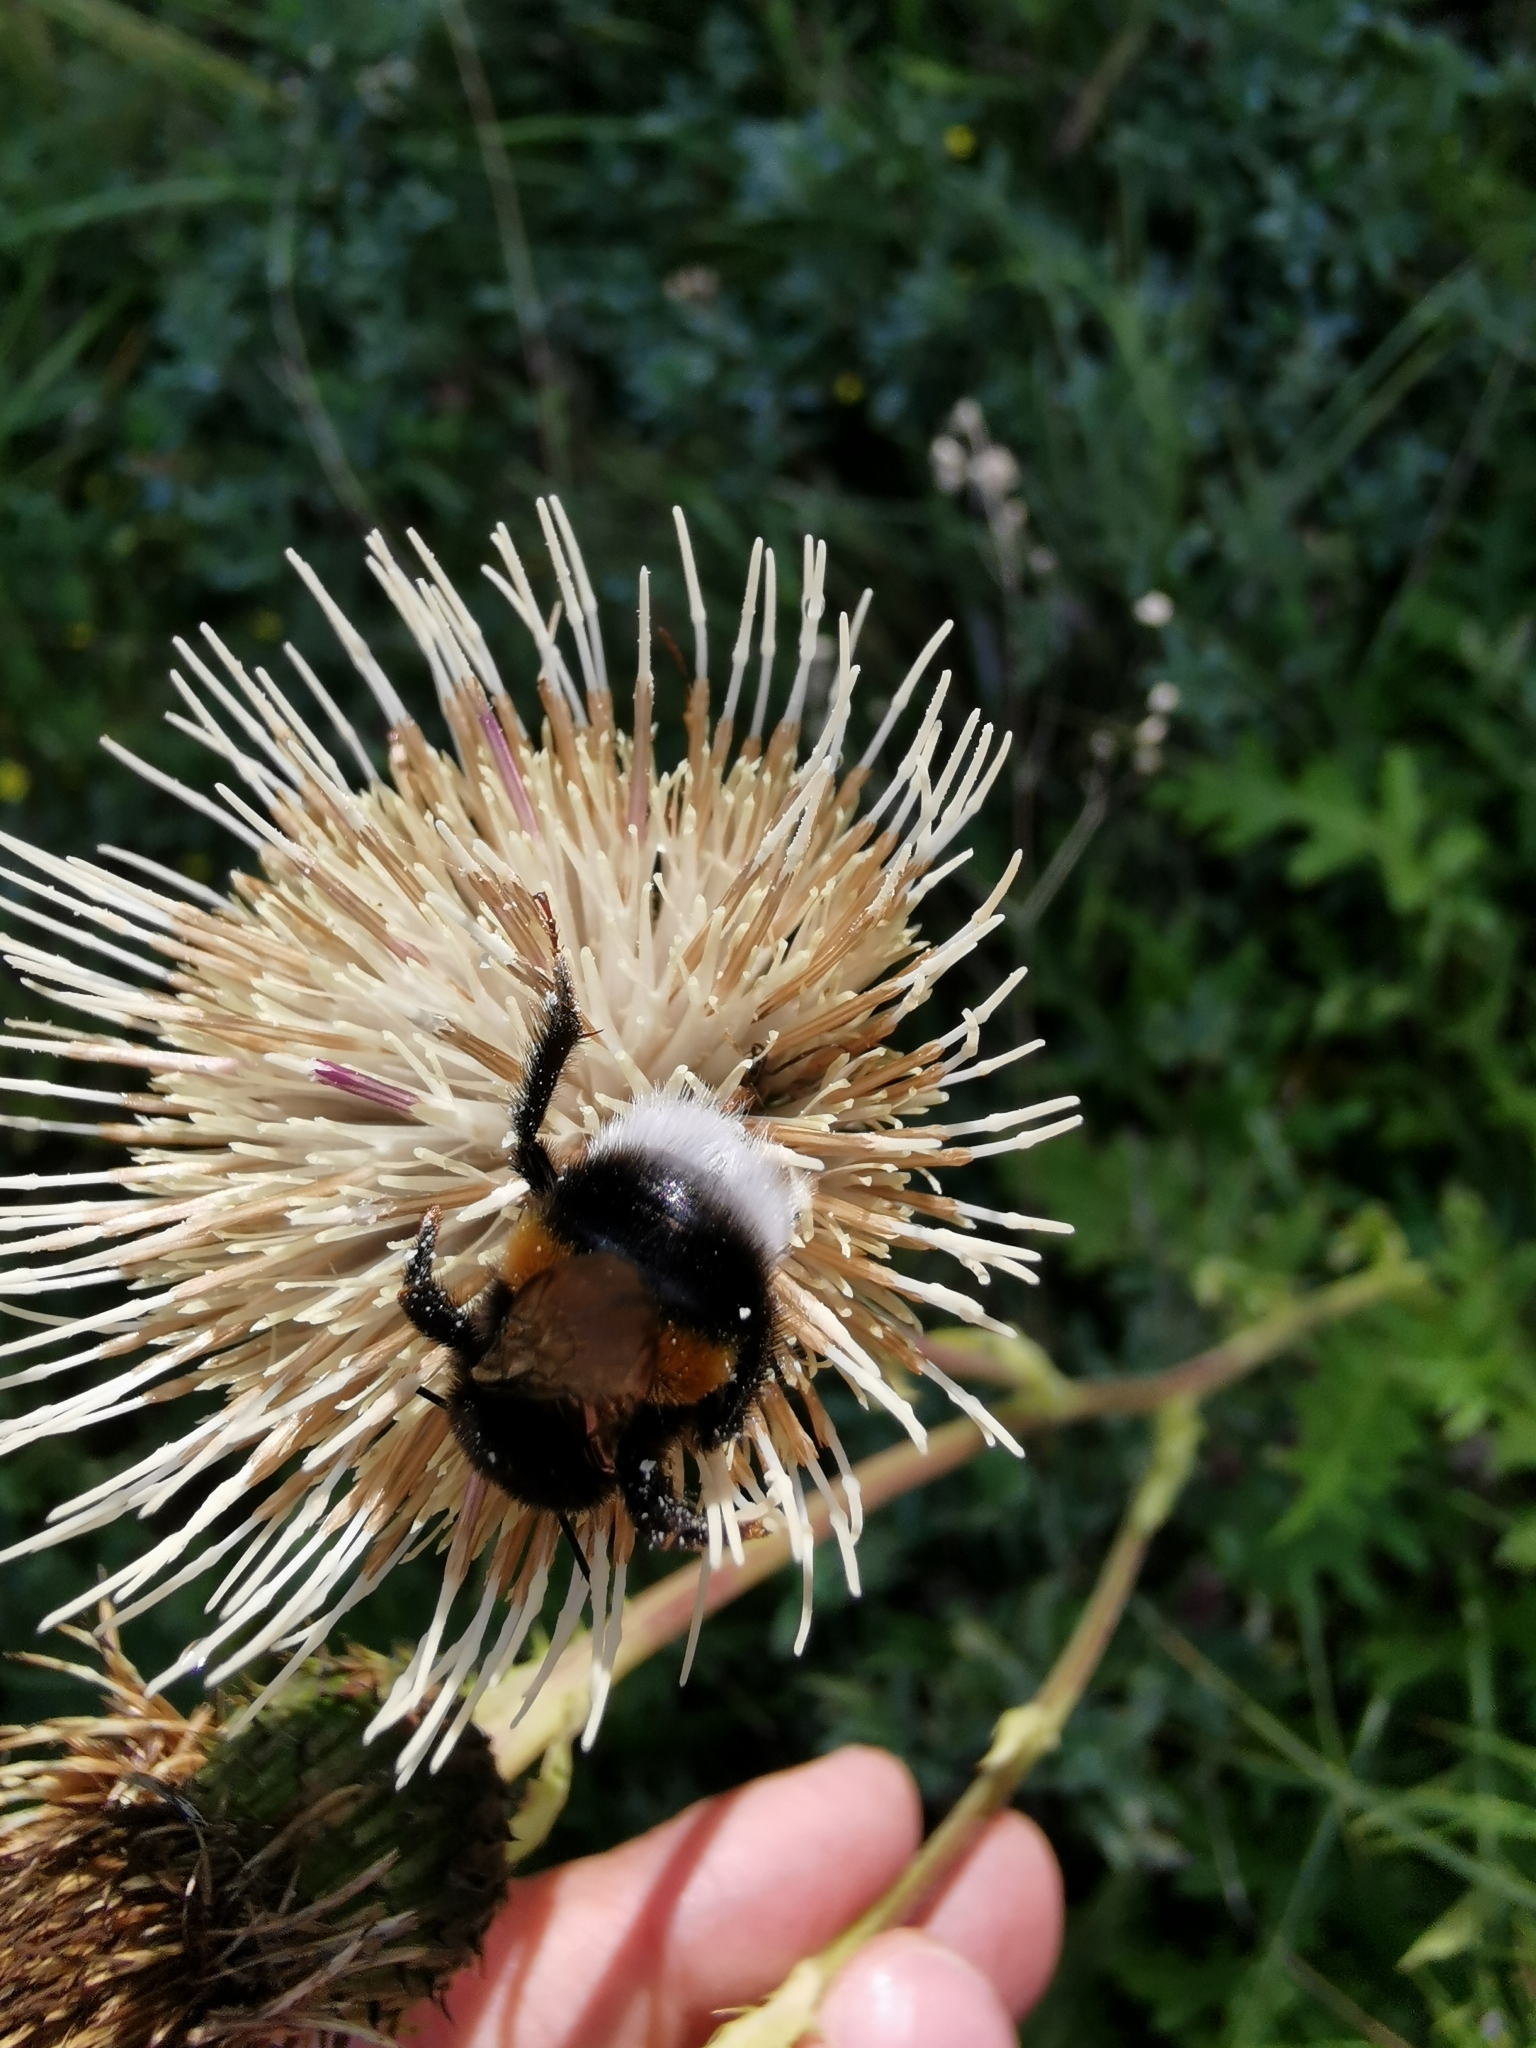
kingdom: Animalia
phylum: Arthropoda
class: Insecta
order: Hymenoptera
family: Apidae
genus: Bombus
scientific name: Bombus
